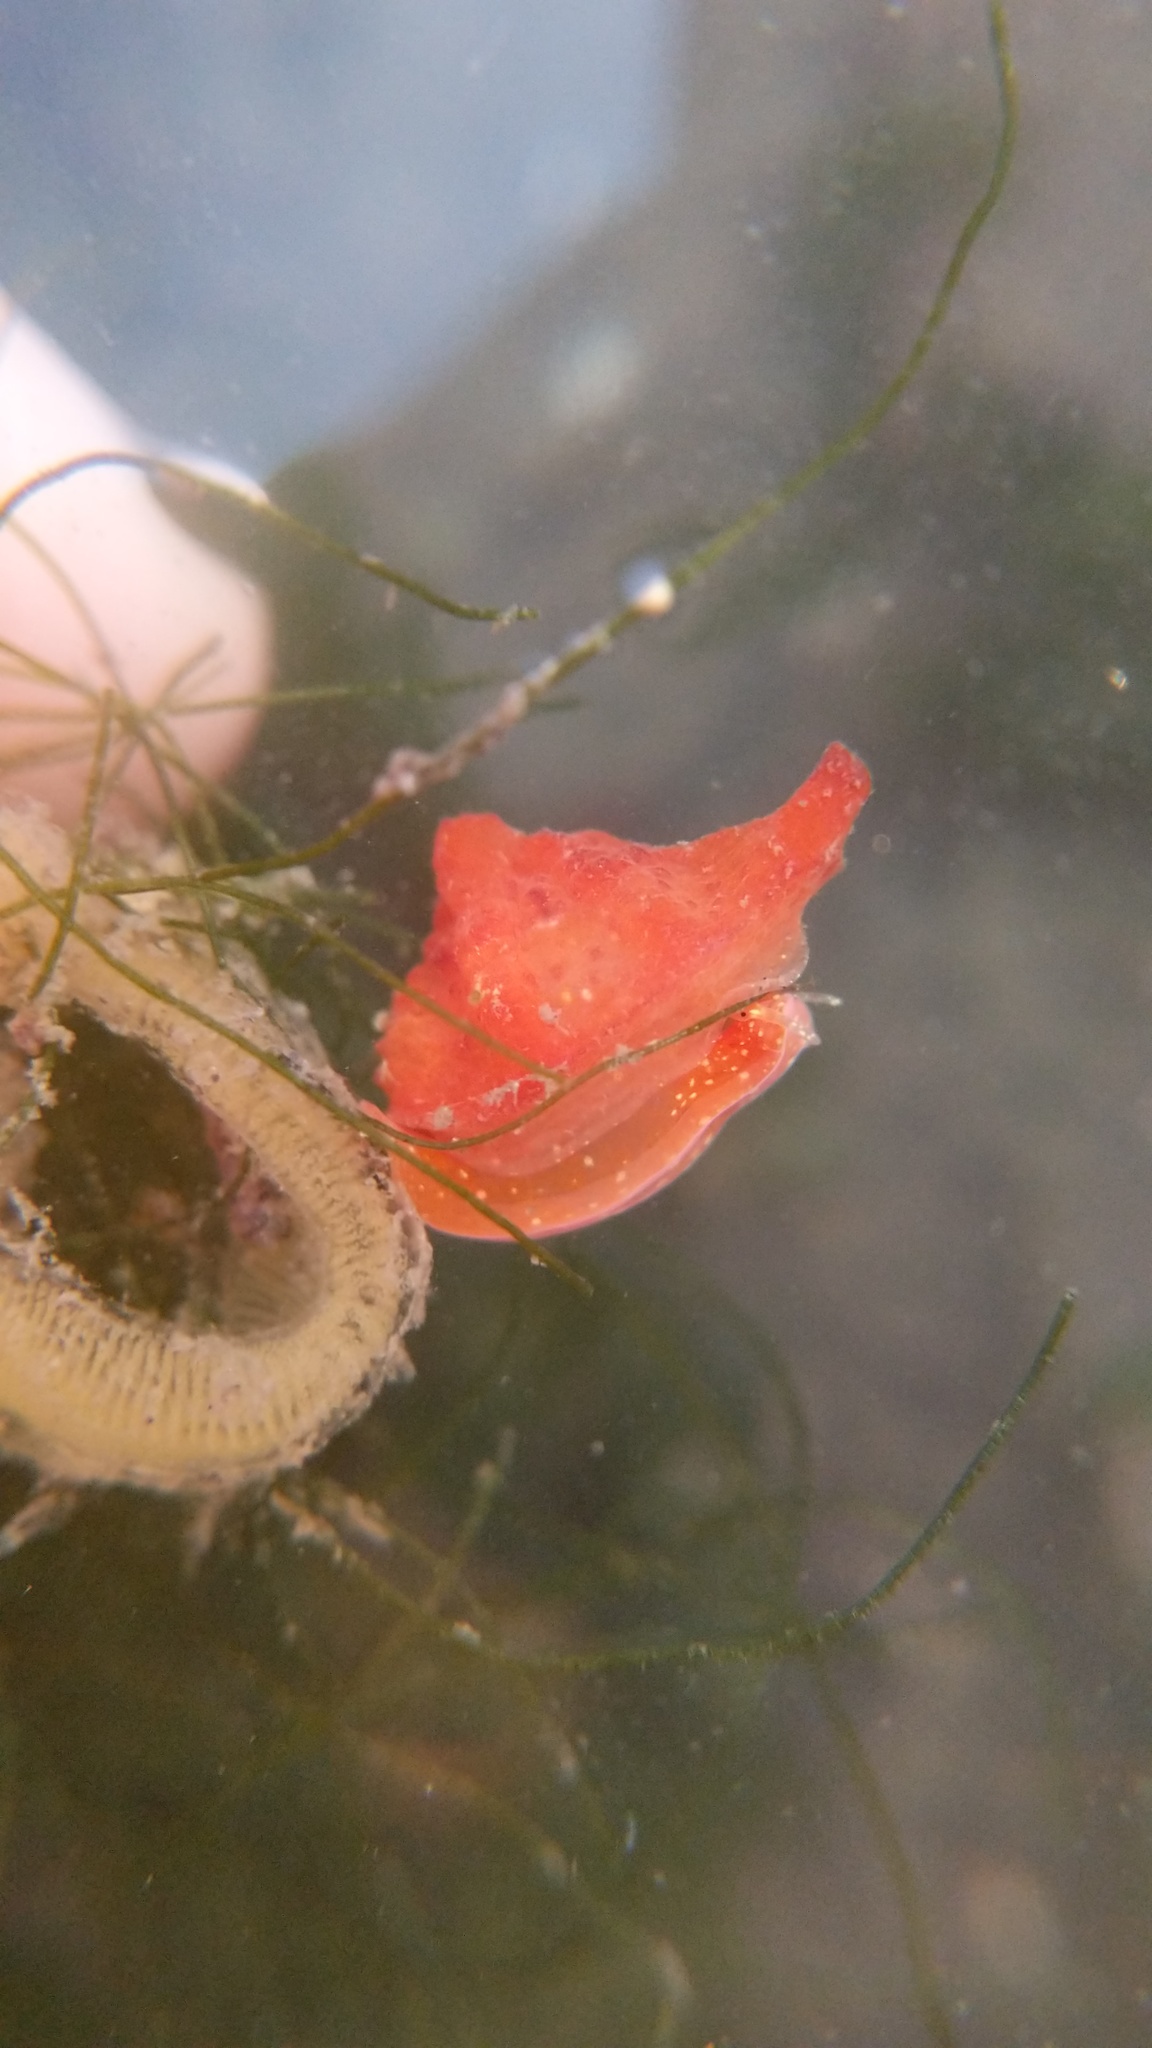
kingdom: Animalia
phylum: Mollusca
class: Gastropoda
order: Littorinimorpha
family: Velutinidae
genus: Hainotis
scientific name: Hainotis sharonae
